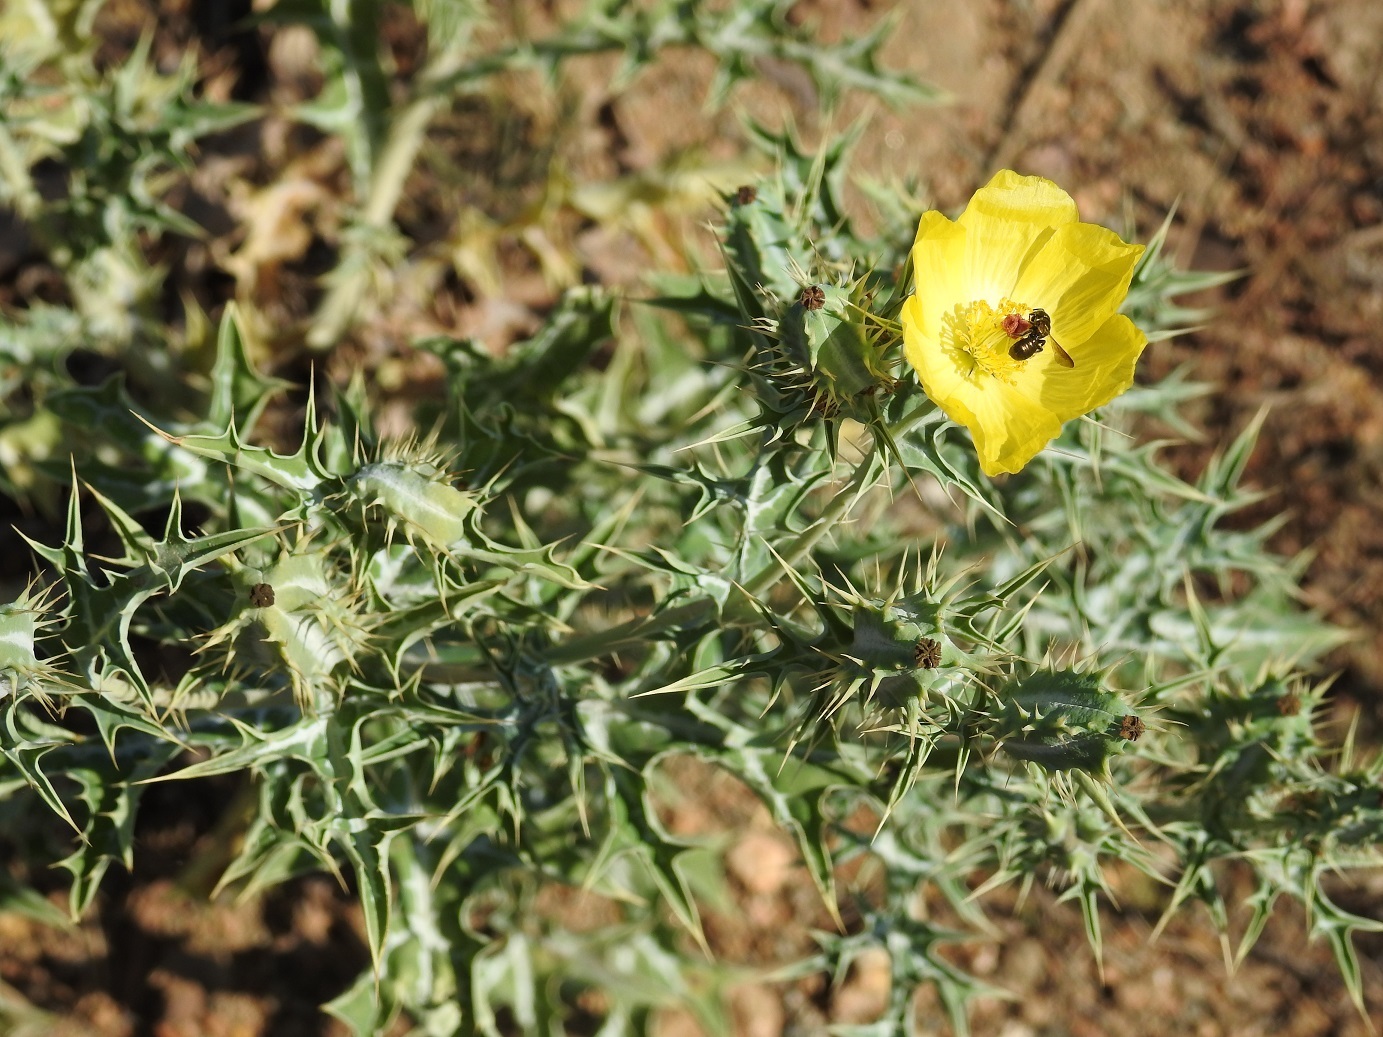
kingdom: Plantae
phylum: Tracheophyta
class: Magnoliopsida
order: Ranunculales
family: Papaveraceae
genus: Argemone
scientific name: Argemone mexicana
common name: Mexican poppy
